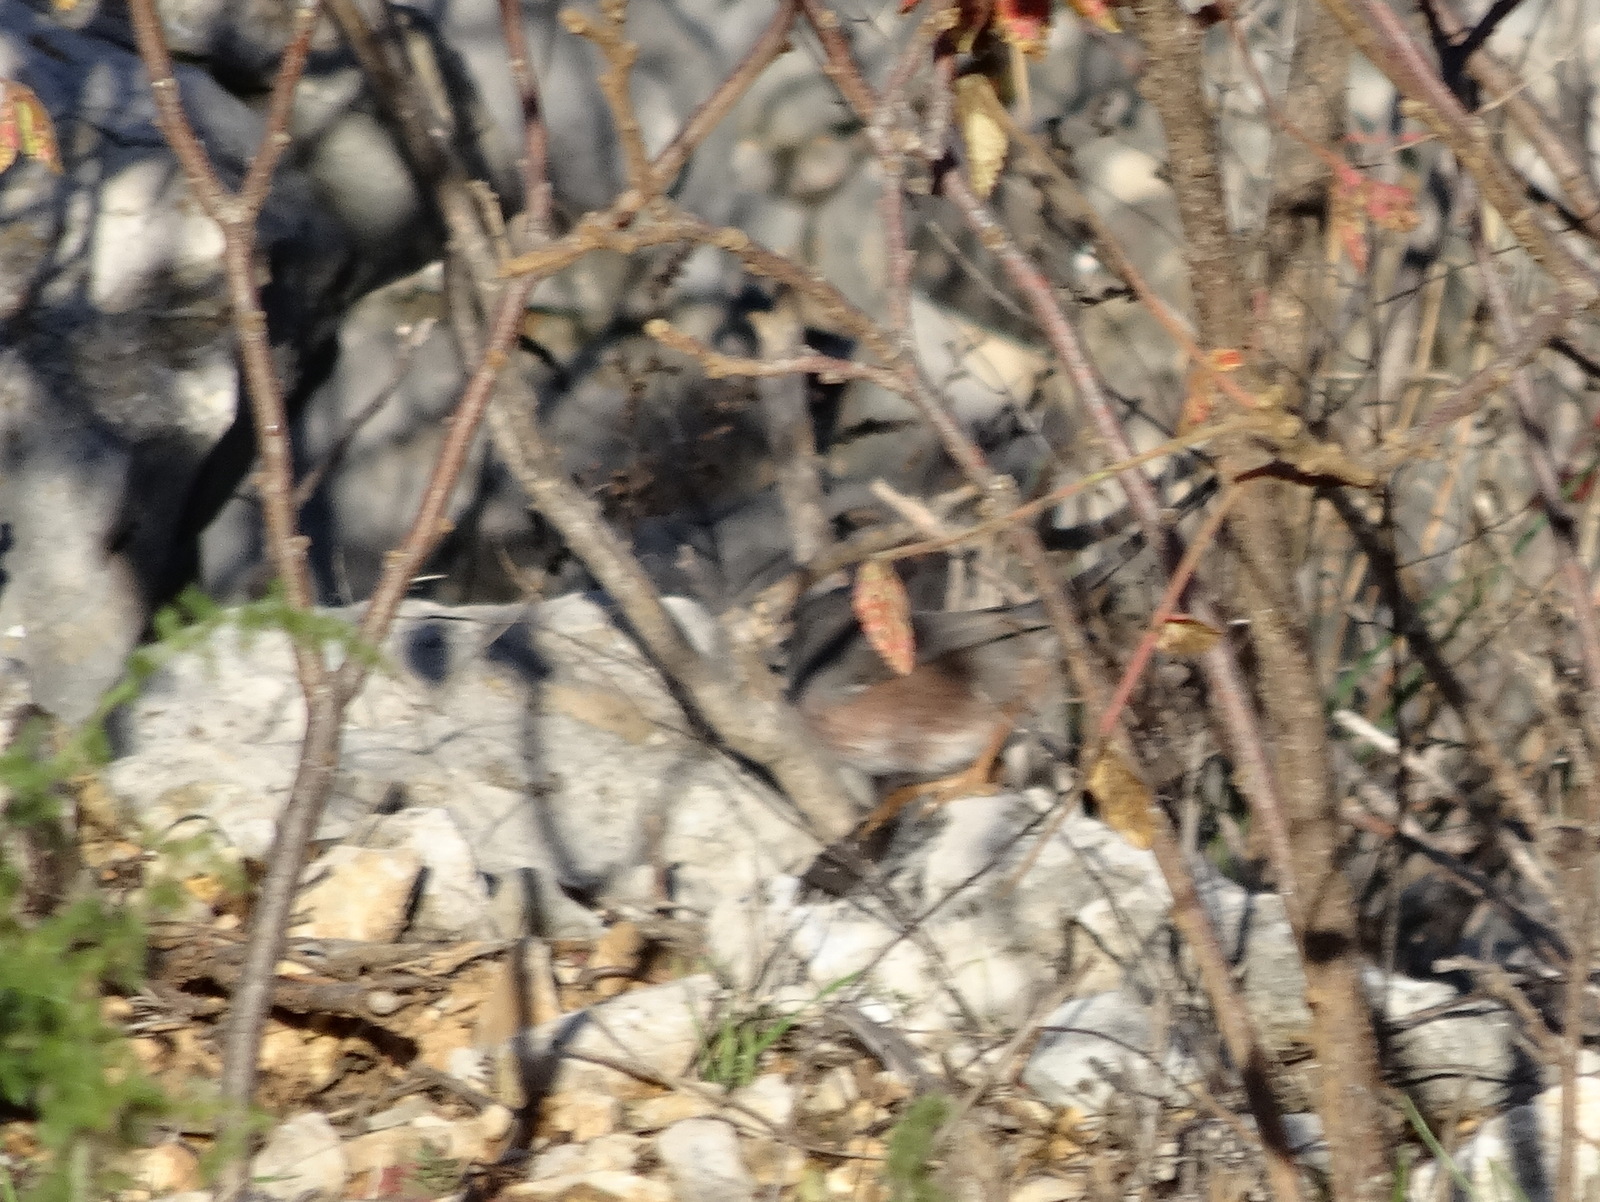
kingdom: Animalia
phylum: Chordata
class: Aves
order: Passeriformes
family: Sylviidae
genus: Sylvia
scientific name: Sylvia undata
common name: Dartford warbler
